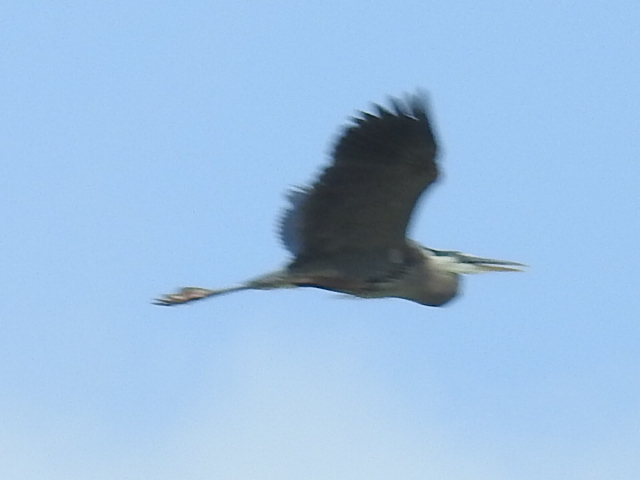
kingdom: Animalia
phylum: Chordata
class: Aves
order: Pelecaniformes
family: Ardeidae
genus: Ardea
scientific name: Ardea herodias
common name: Great blue heron
